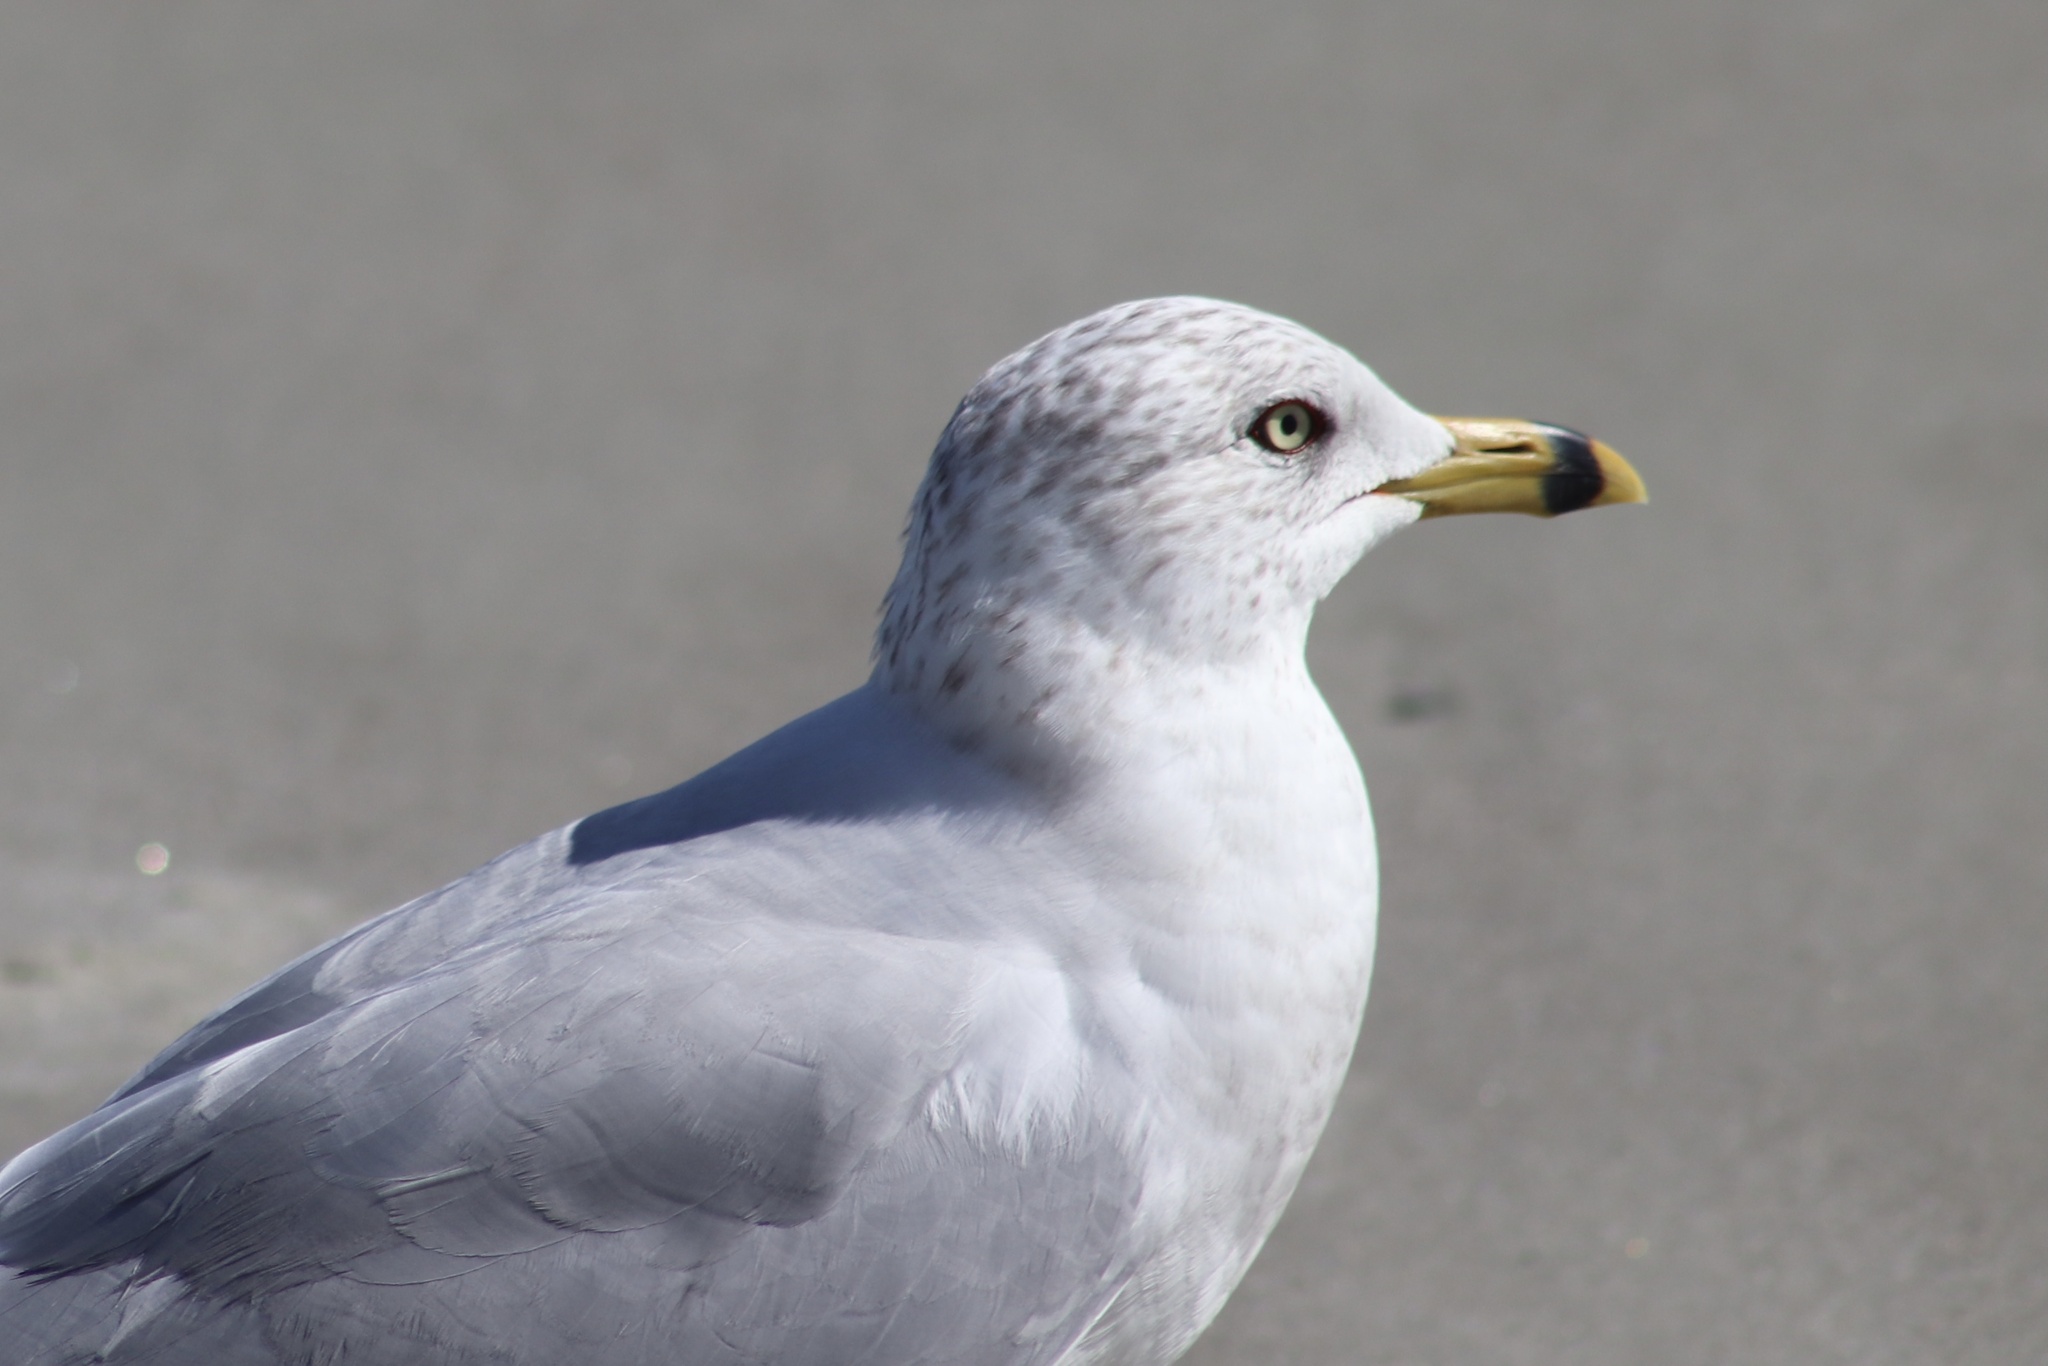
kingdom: Animalia
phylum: Chordata
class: Aves
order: Charadriiformes
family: Laridae
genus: Larus
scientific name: Larus delawarensis
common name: Ring-billed gull
